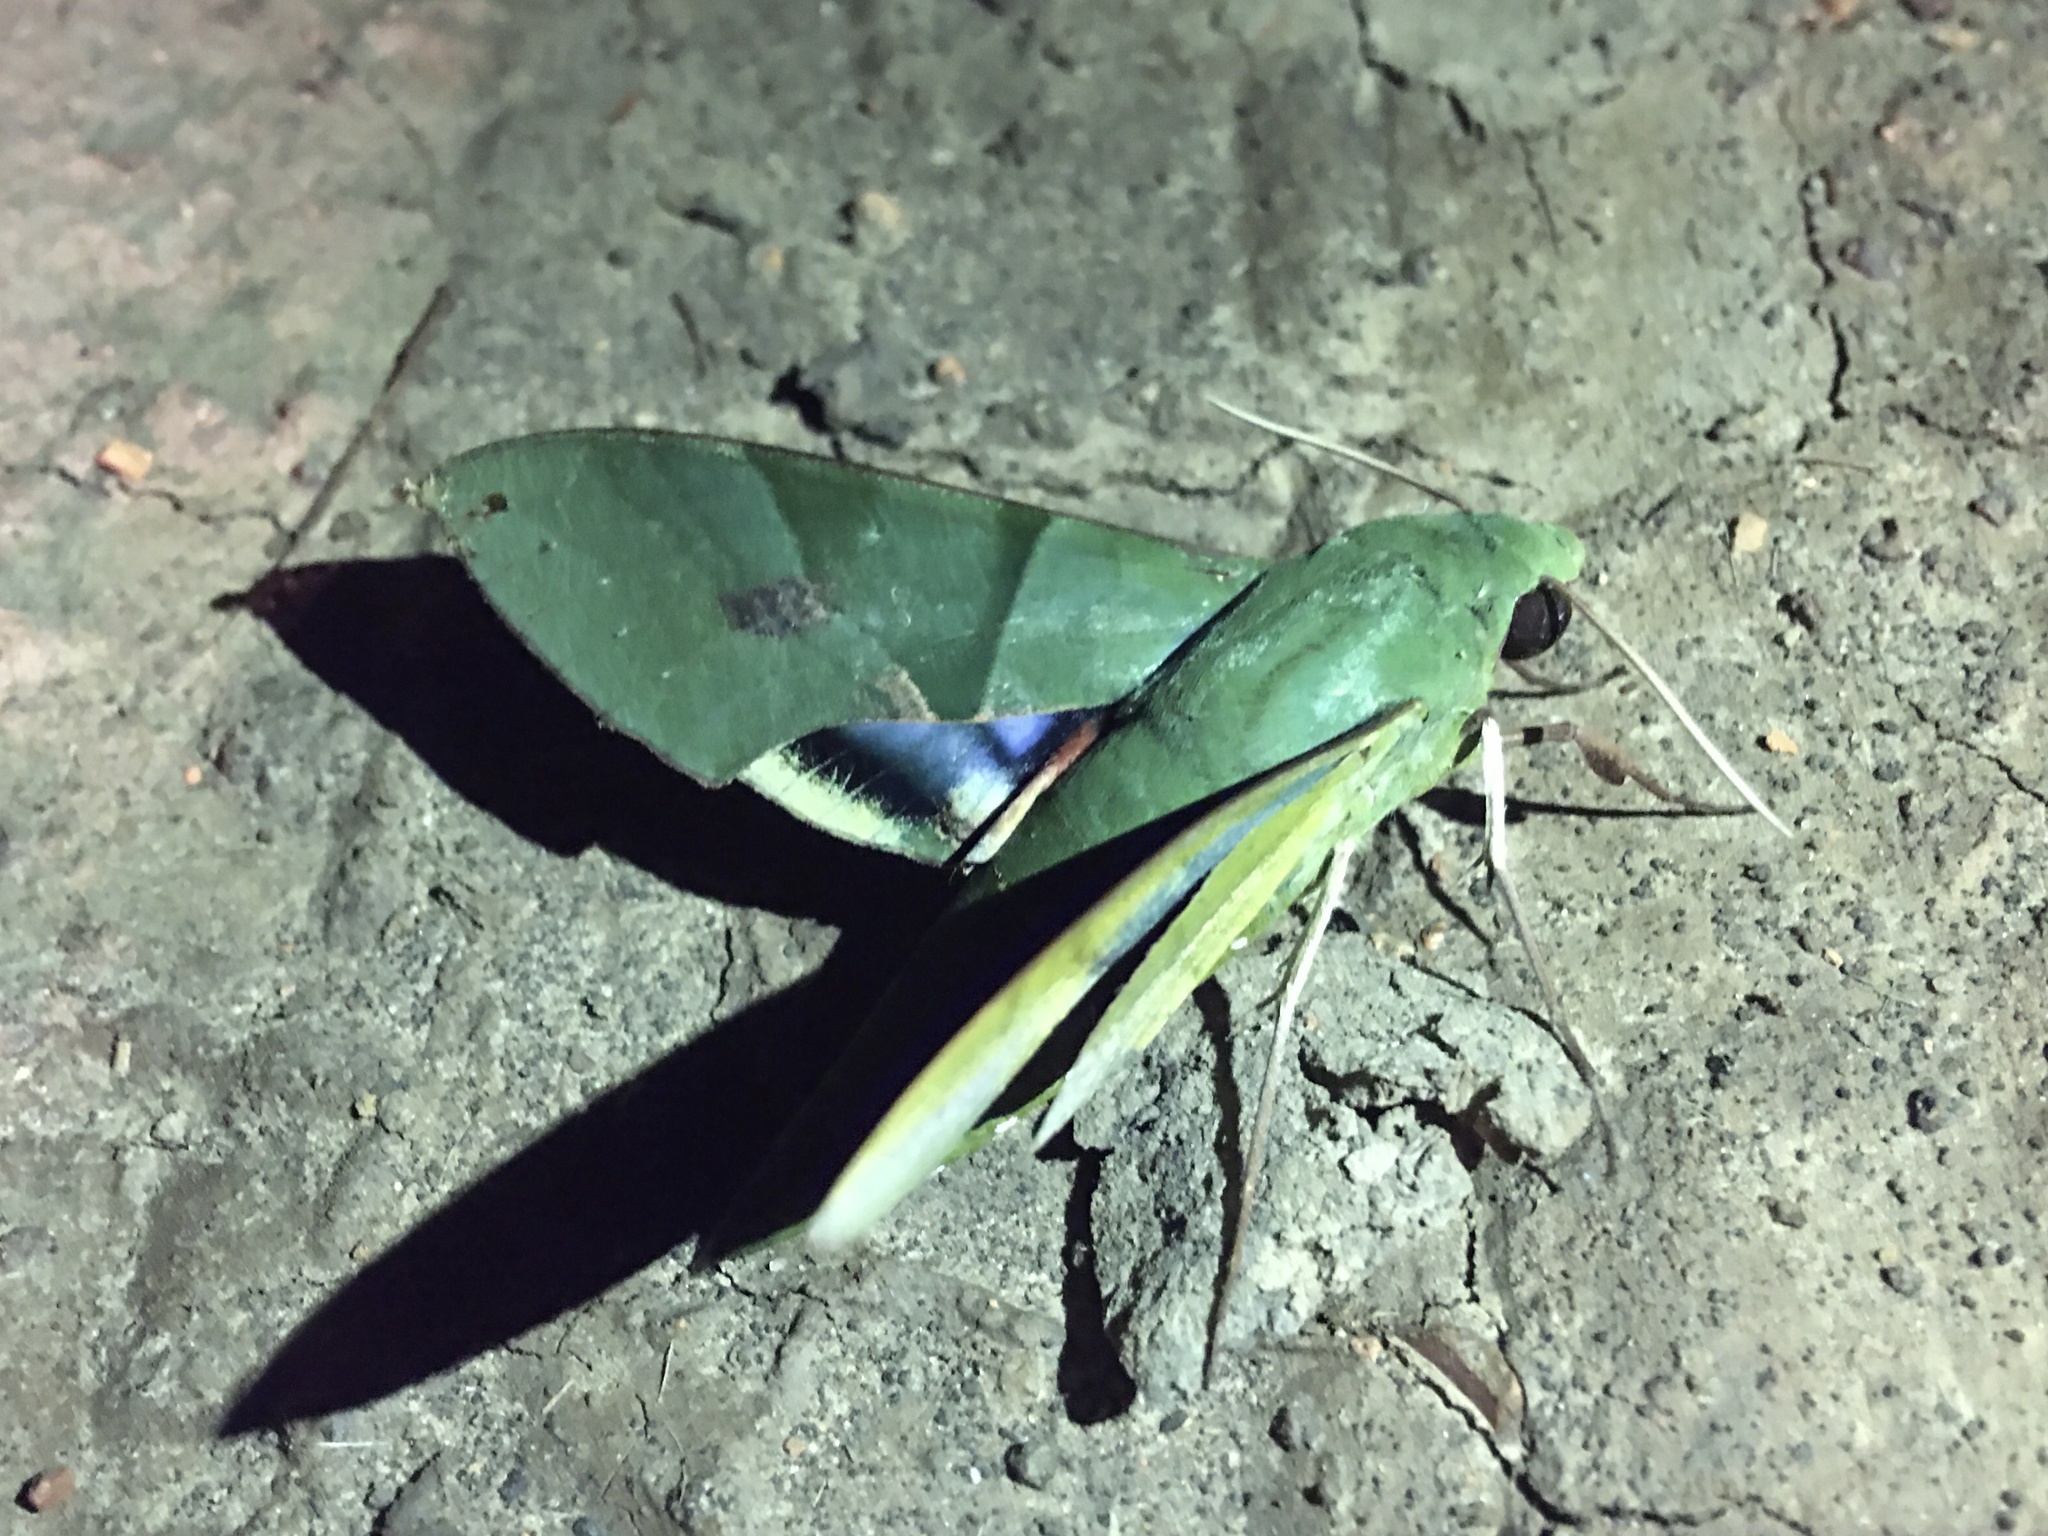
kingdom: Animalia
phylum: Arthropoda
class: Insecta
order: Lepidoptera
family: Sphingidae
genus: Eumorpha
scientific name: Eumorpha labruscae
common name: Gaudy sphinx
